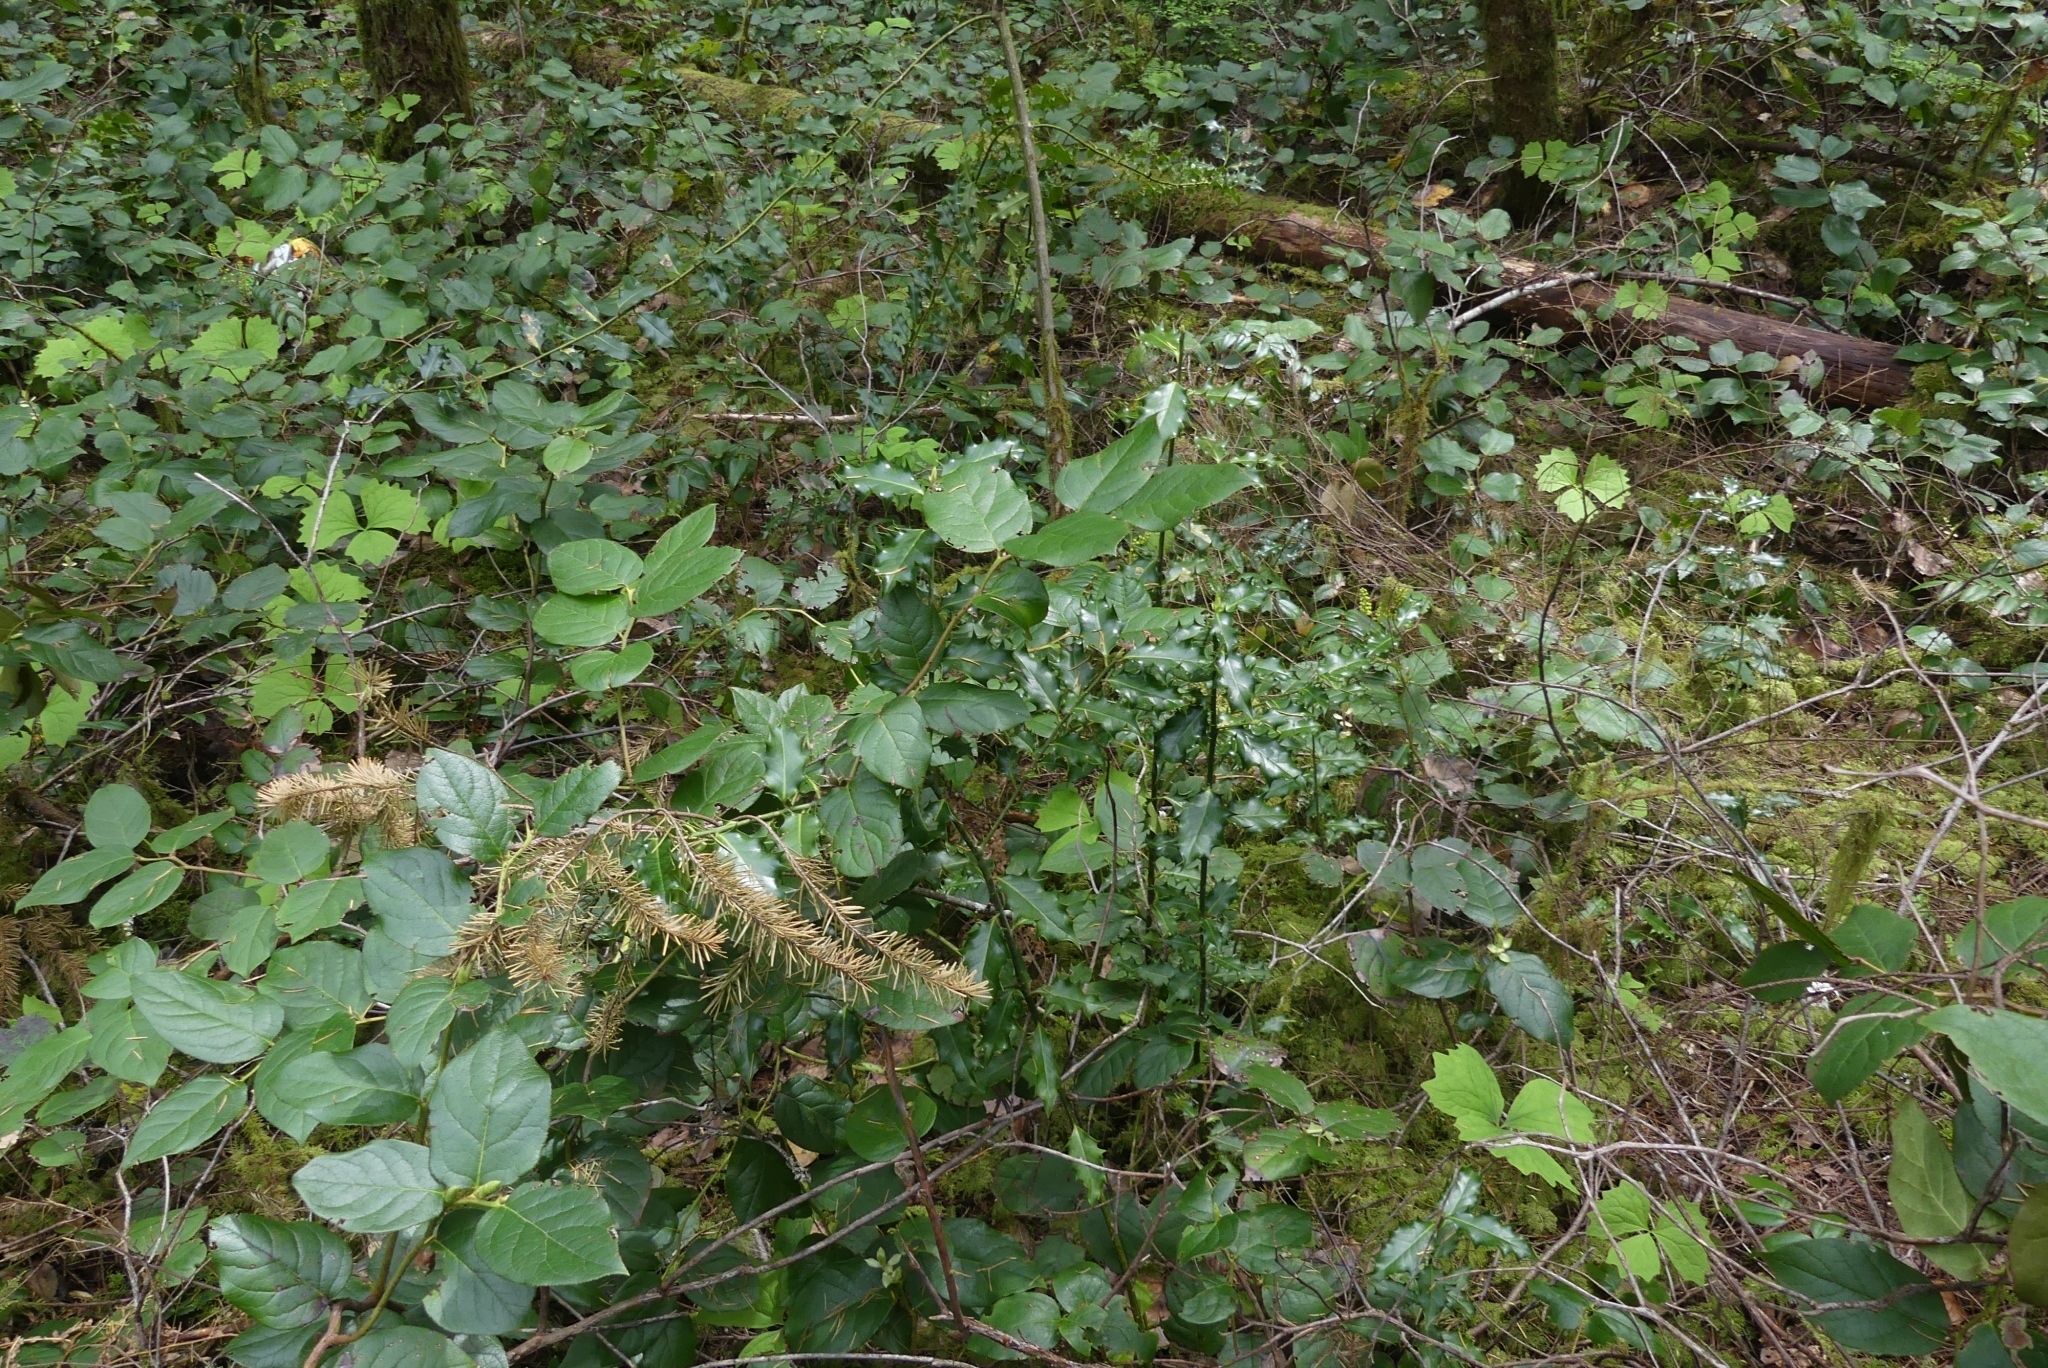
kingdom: Plantae
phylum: Tracheophyta
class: Magnoliopsida
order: Aquifoliales
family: Aquifoliaceae
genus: Ilex
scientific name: Ilex aquifolium
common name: English holly
